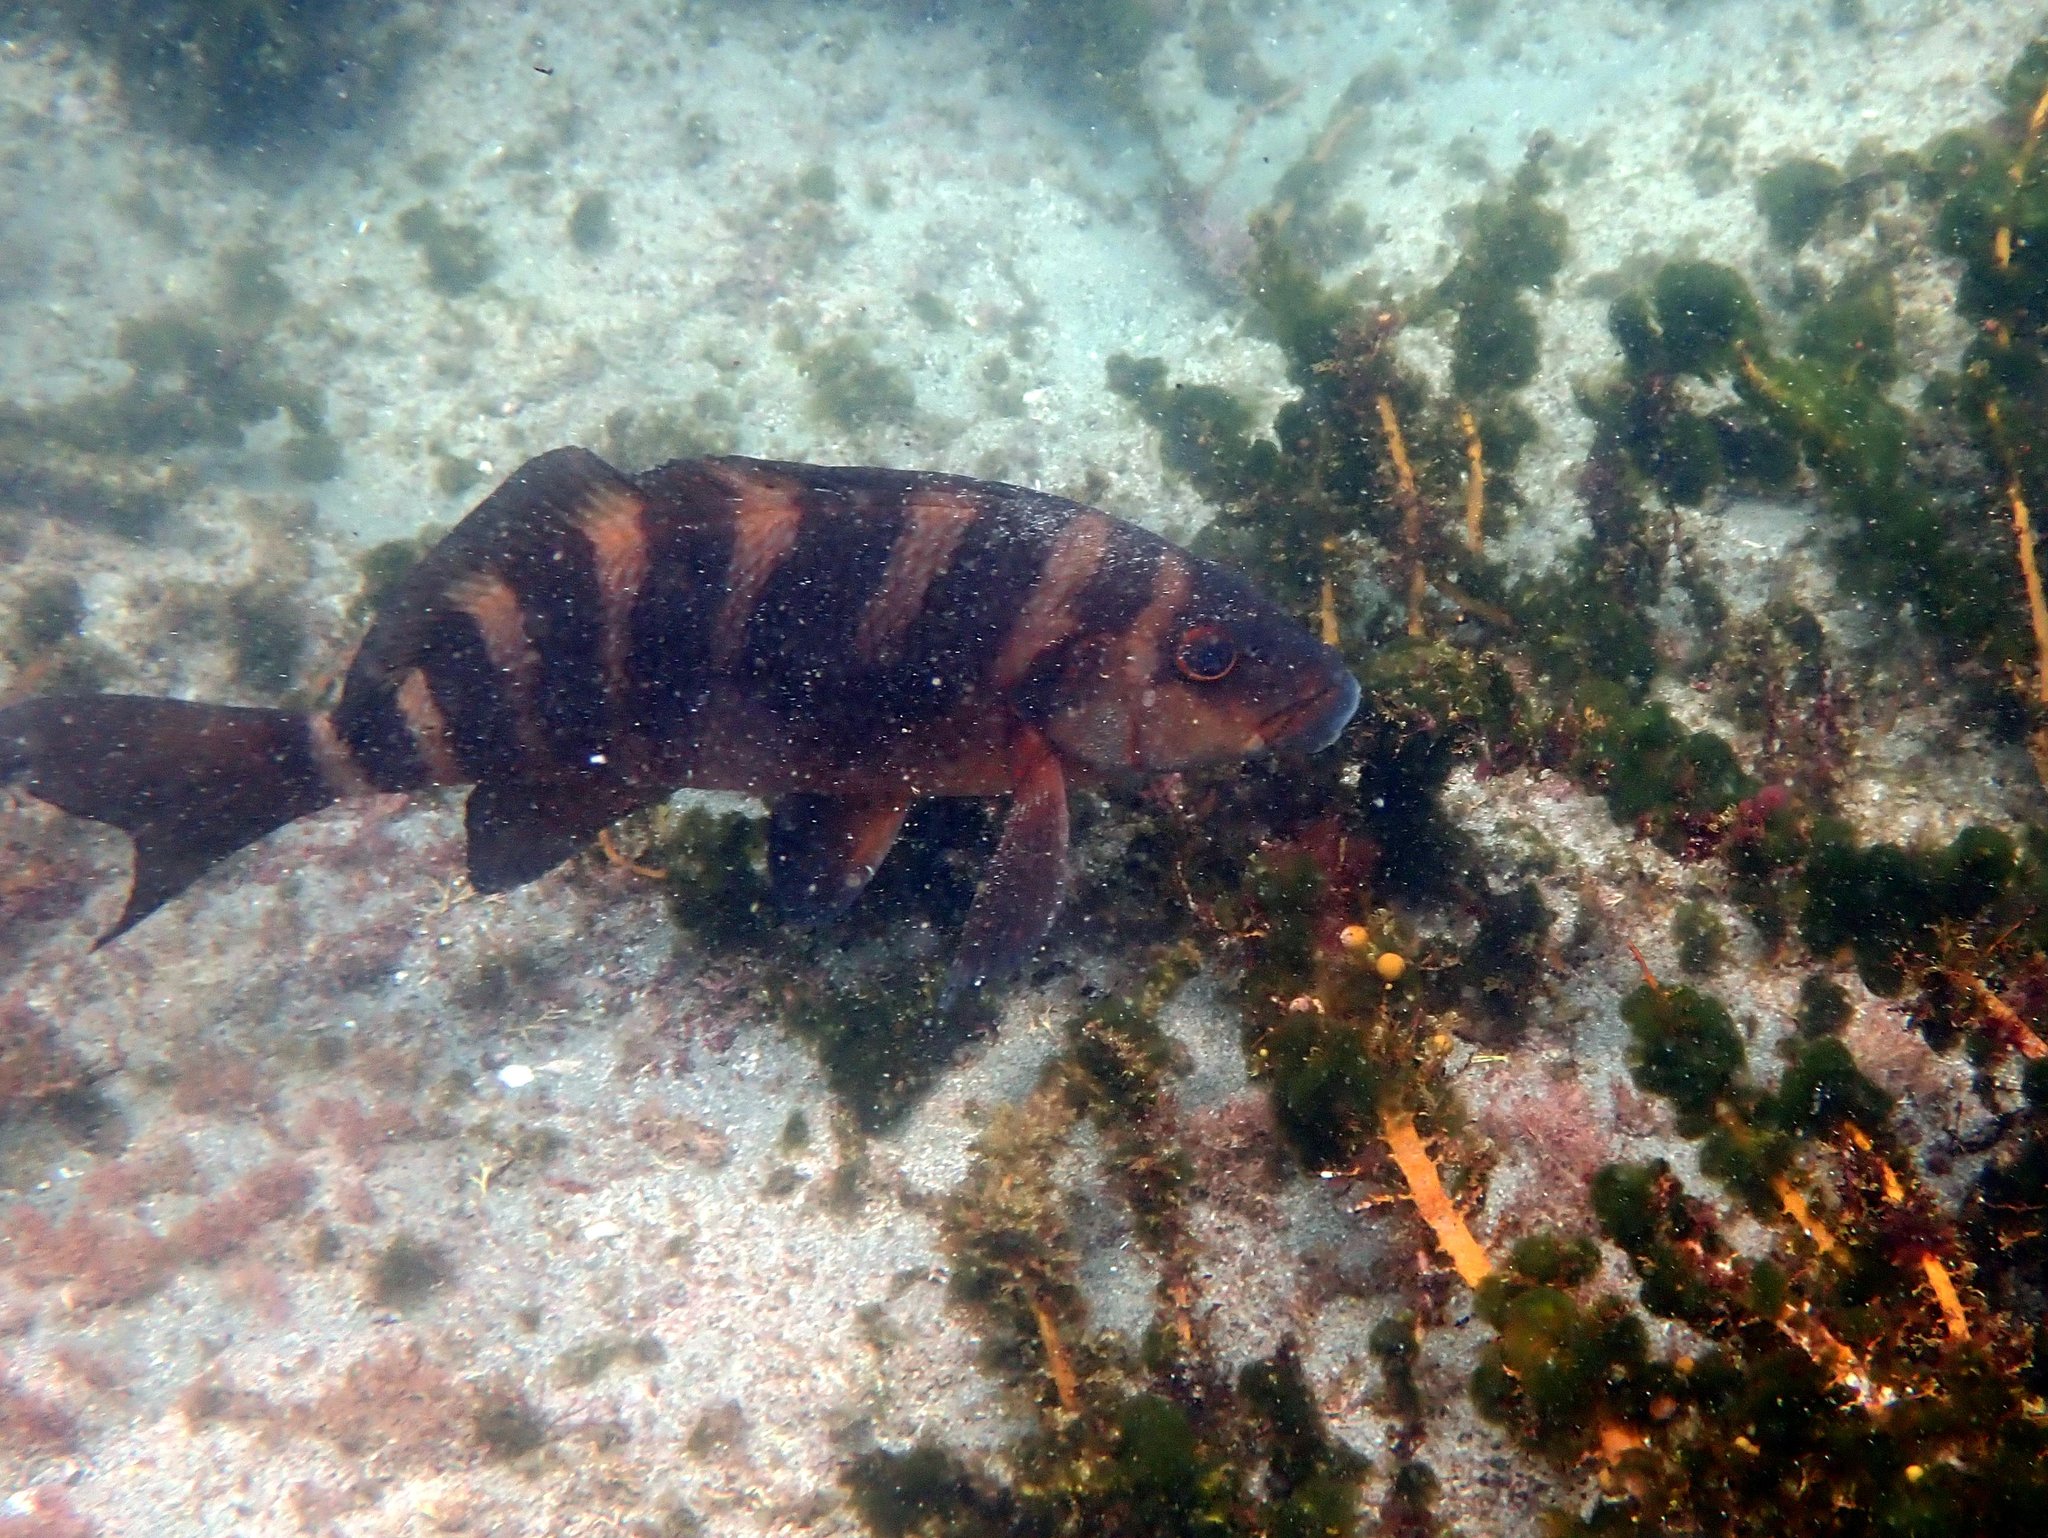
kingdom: Animalia
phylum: Chordata
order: Perciformes
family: Cheilodactylidae
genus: Cheilodactylus
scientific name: Cheilodactylus spectabilis
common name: Red moki
